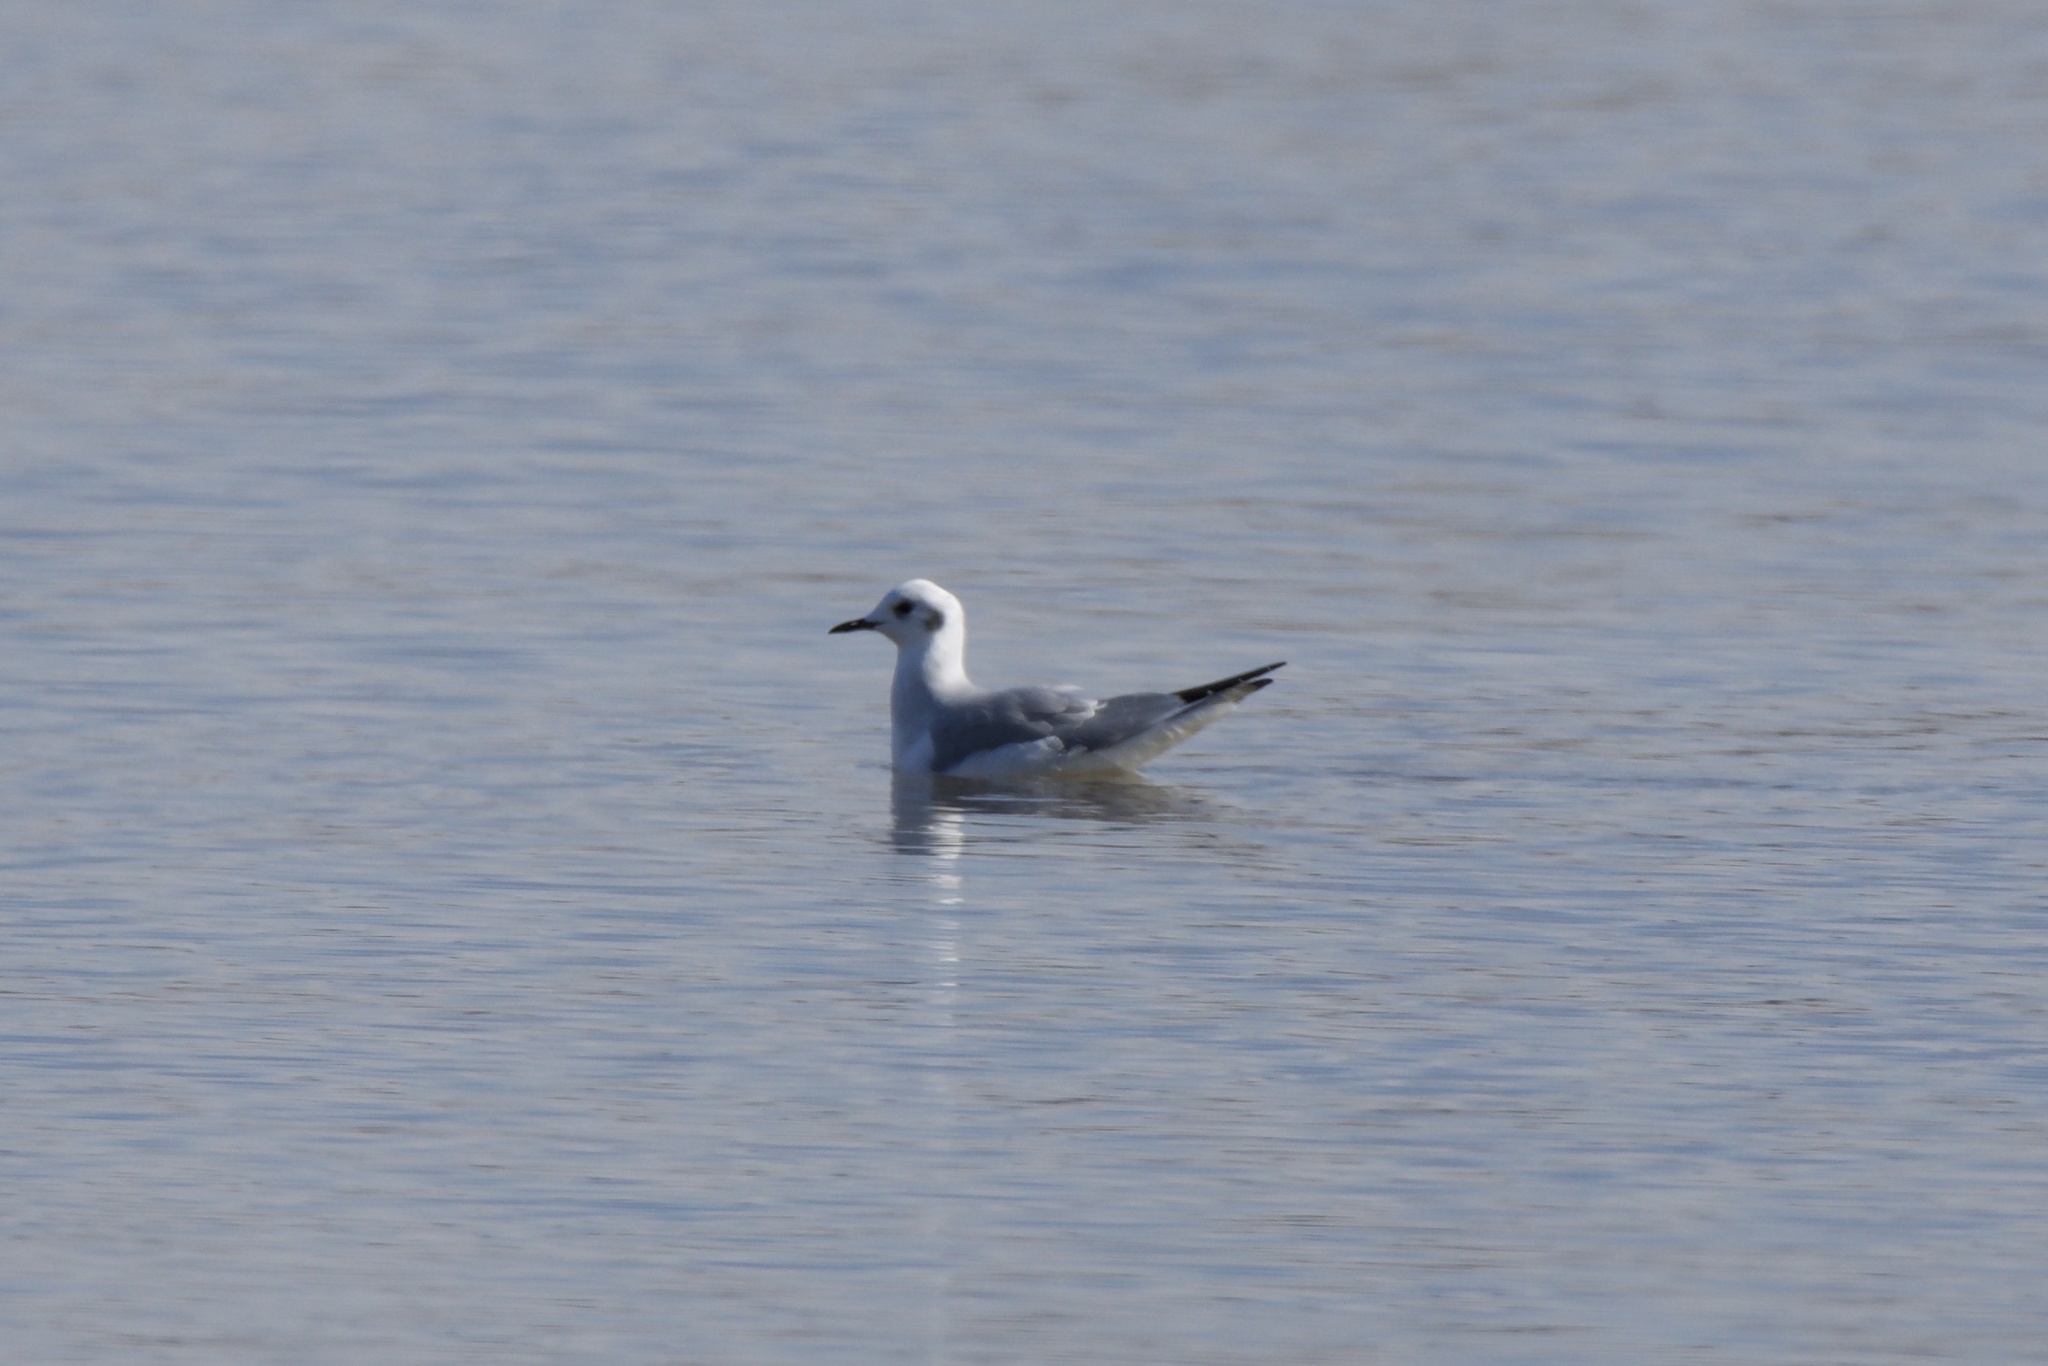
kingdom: Animalia
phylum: Chordata
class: Aves
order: Charadriiformes
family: Laridae
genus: Chroicocephalus
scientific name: Chroicocephalus philadelphia
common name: Bonaparte's gull
